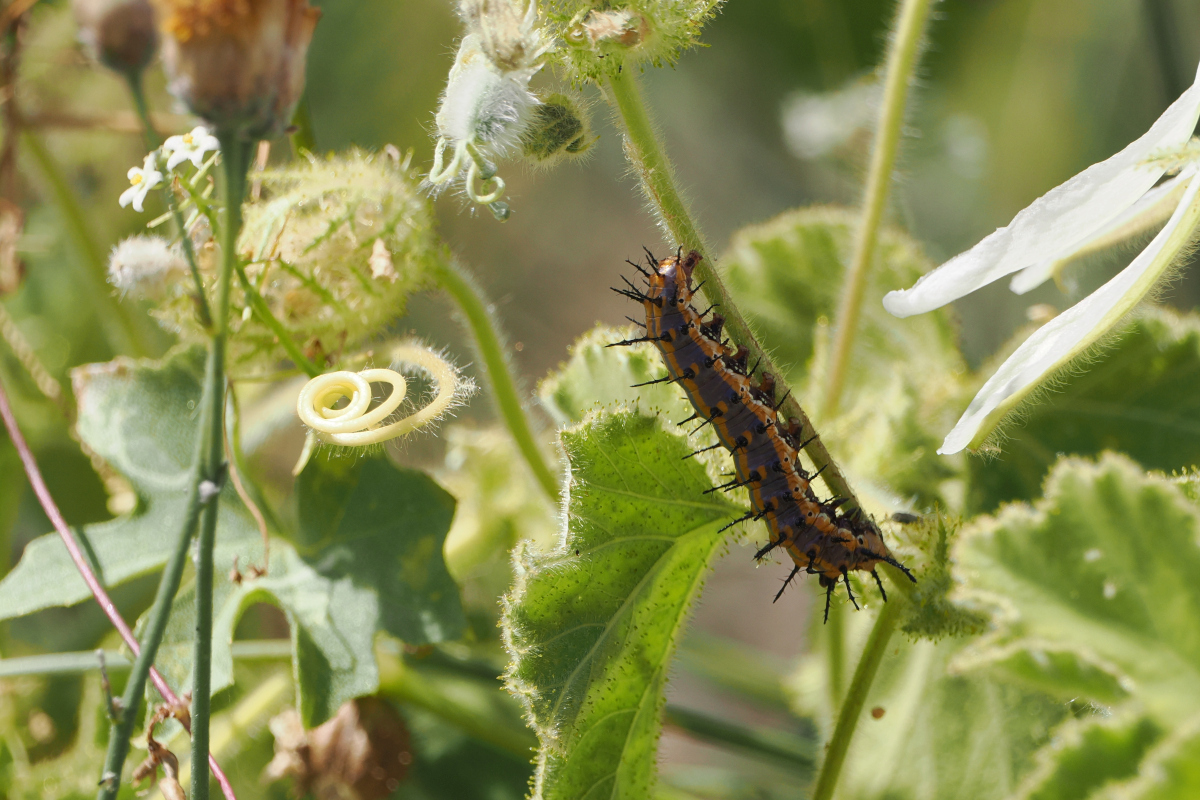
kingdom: Animalia
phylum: Arthropoda
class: Insecta
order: Lepidoptera
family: Nymphalidae
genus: Dione
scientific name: Dione vanillae
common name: Gulf fritillary
